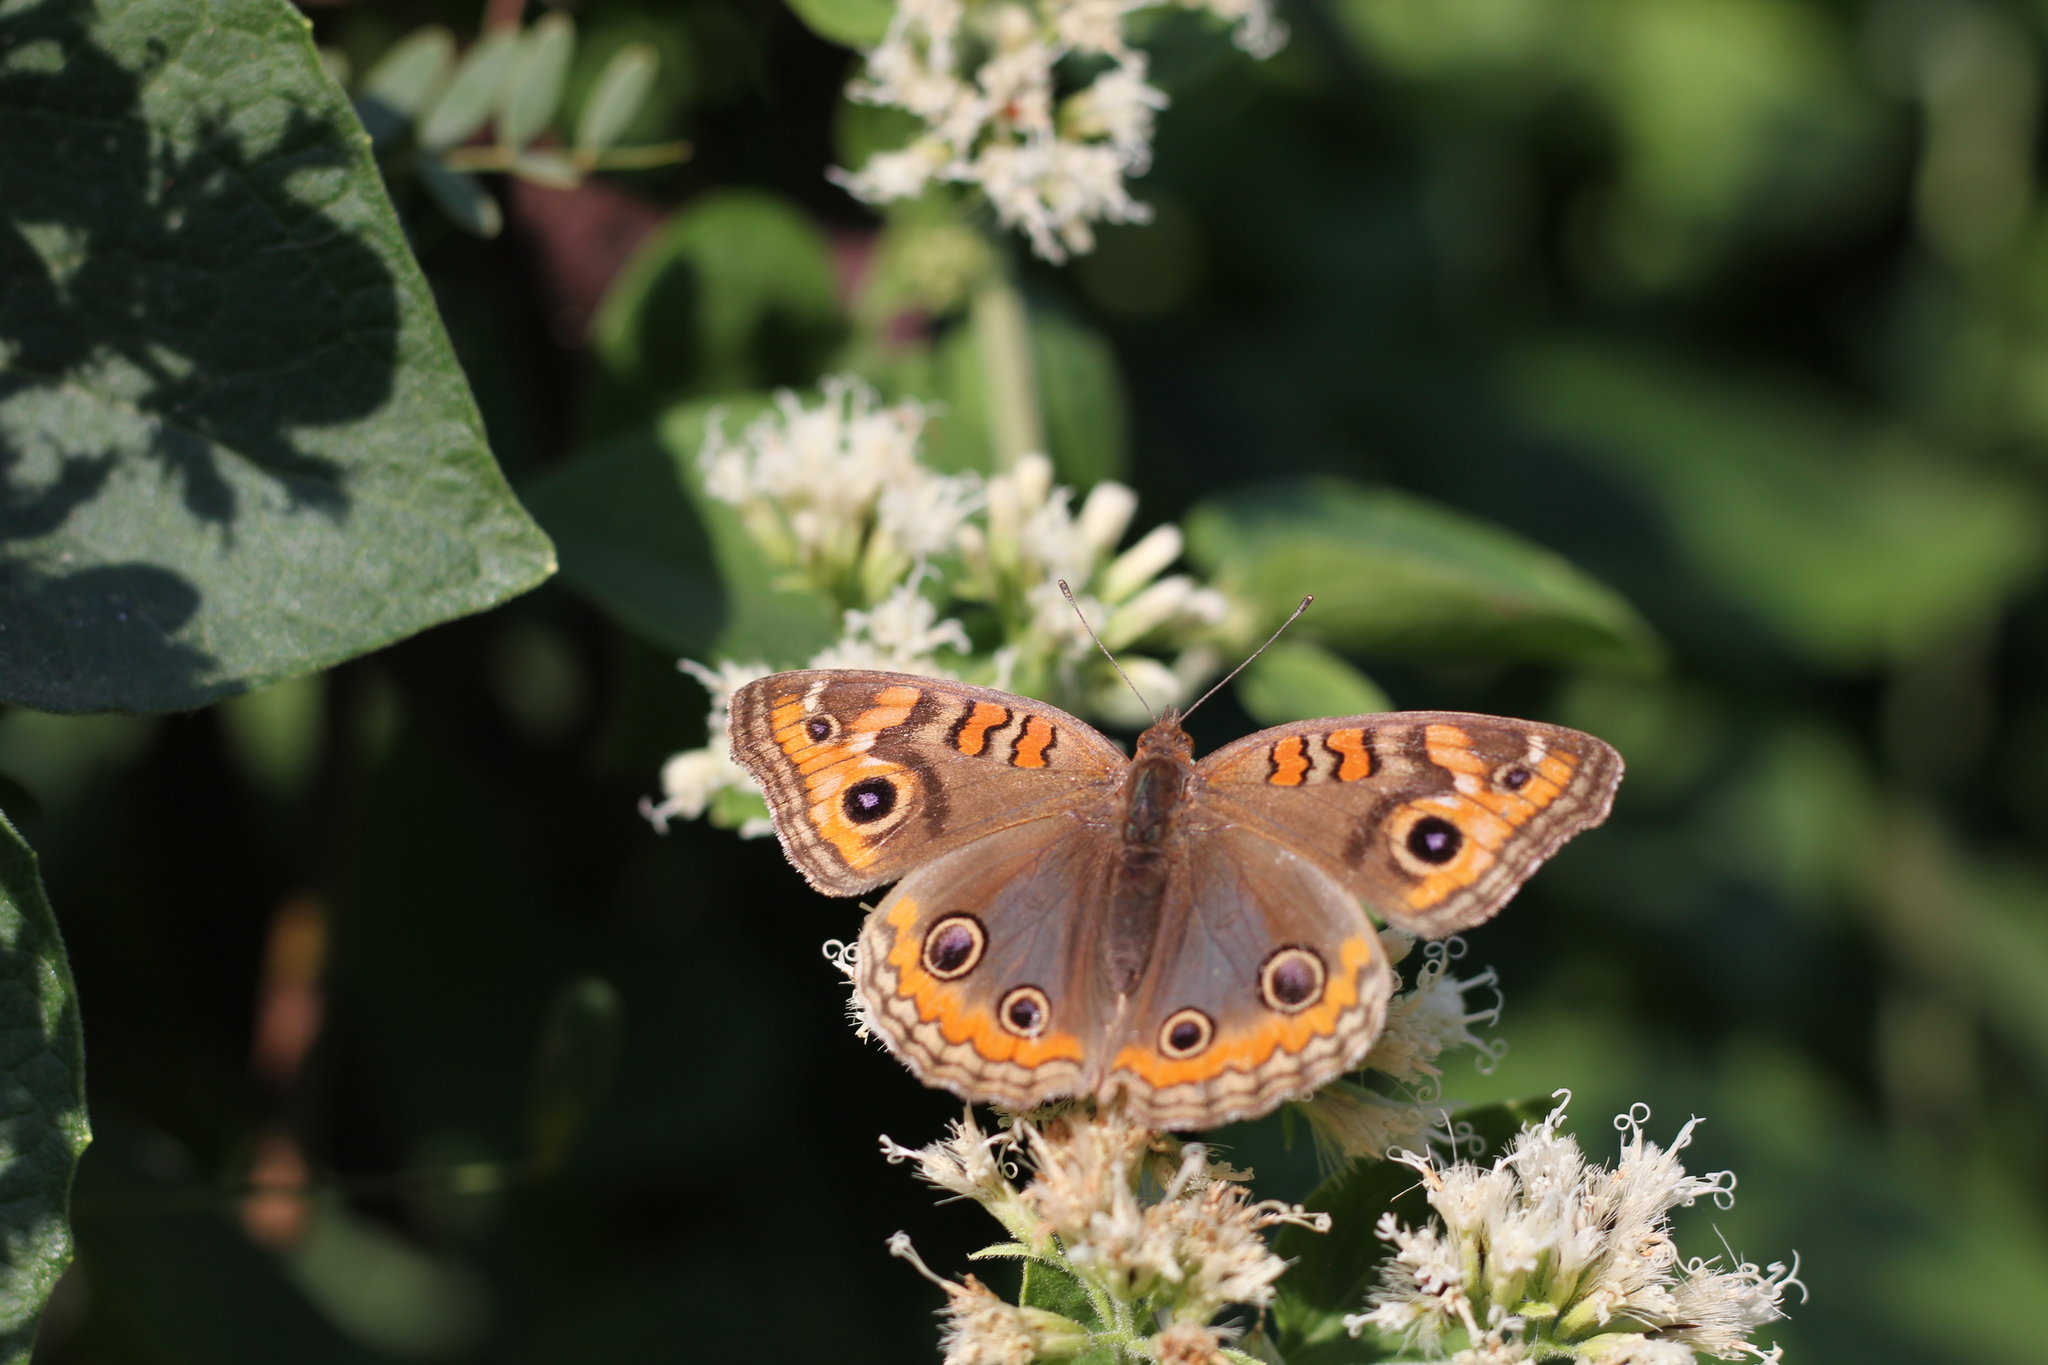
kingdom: Animalia
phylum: Arthropoda
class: Insecta
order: Lepidoptera
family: Nymphalidae
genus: Junonia
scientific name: Junonia lavinia
